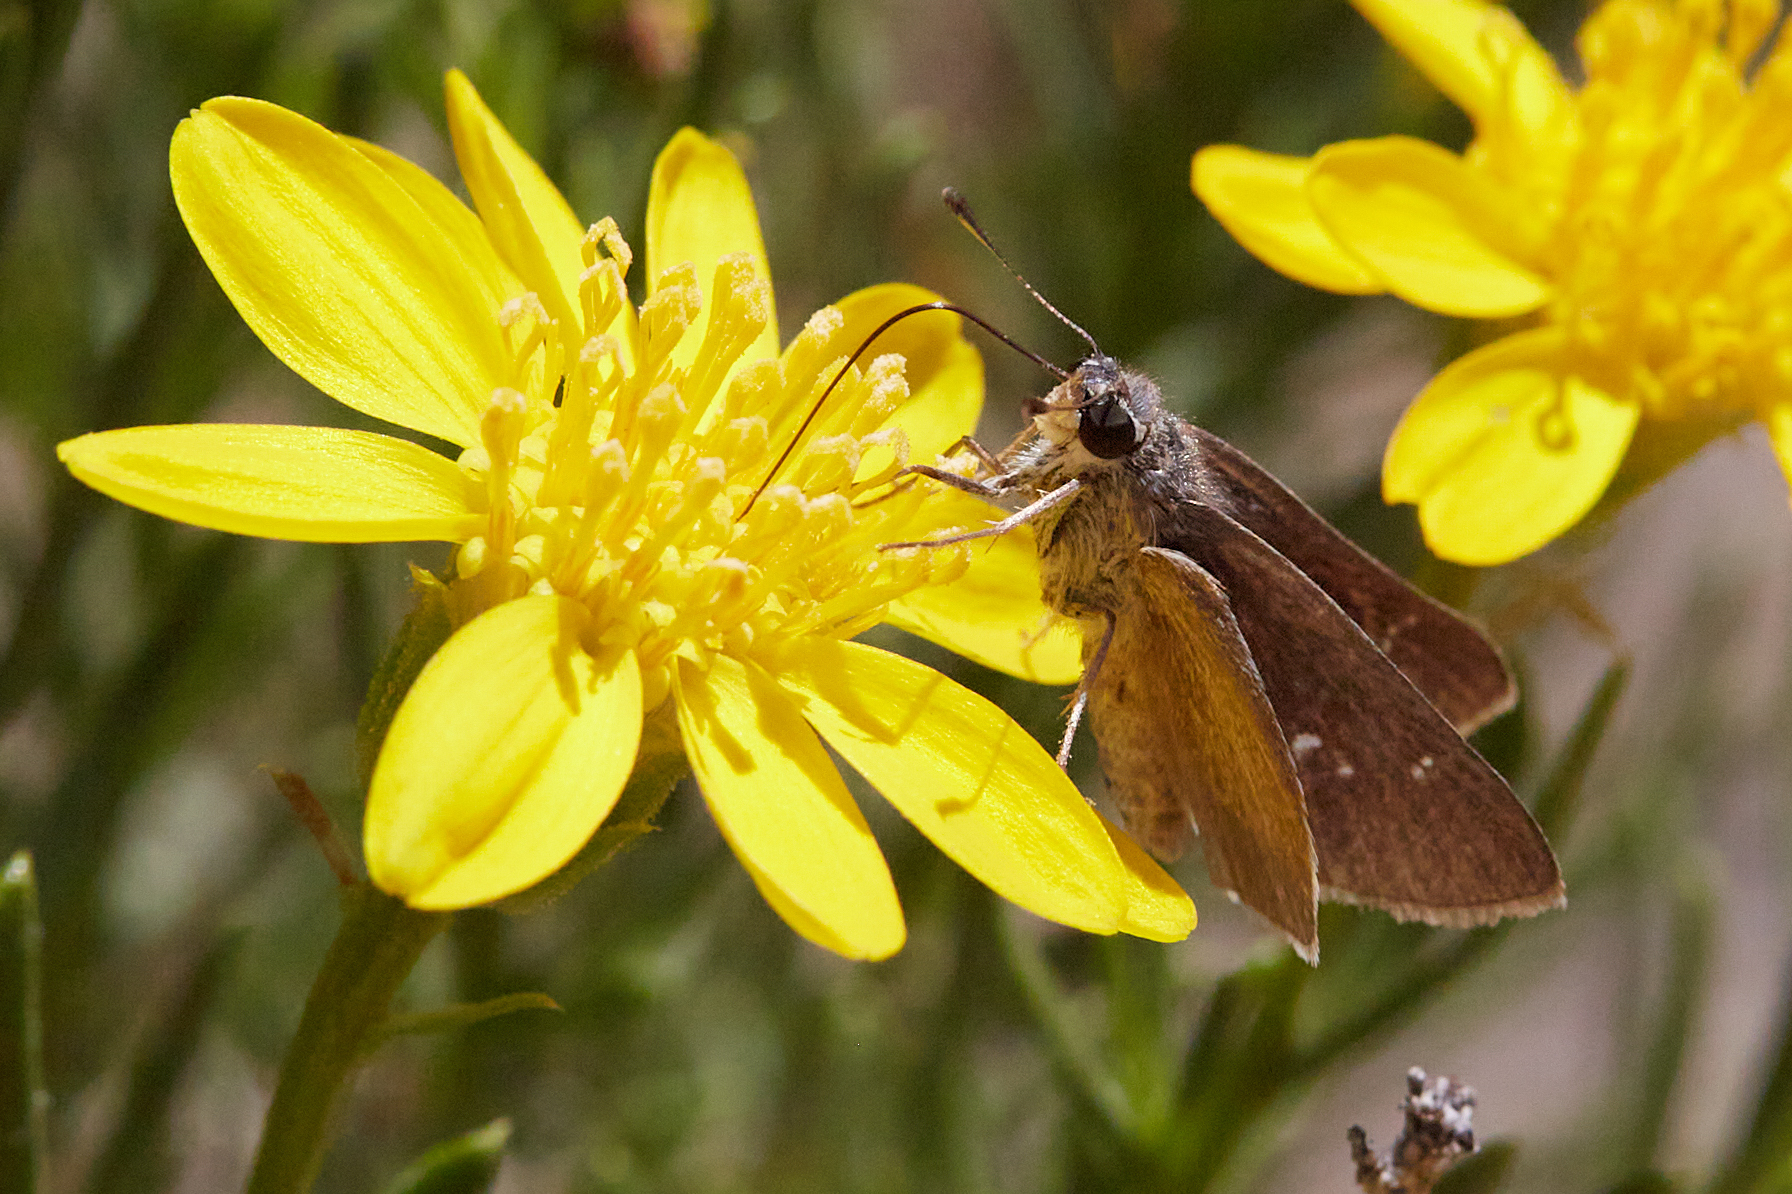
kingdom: Animalia
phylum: Arthropoda
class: Insecta
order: Lepidoptera
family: Hesperiidae
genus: Lerodea
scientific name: Lerodea eufala
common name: Eufala skipper
